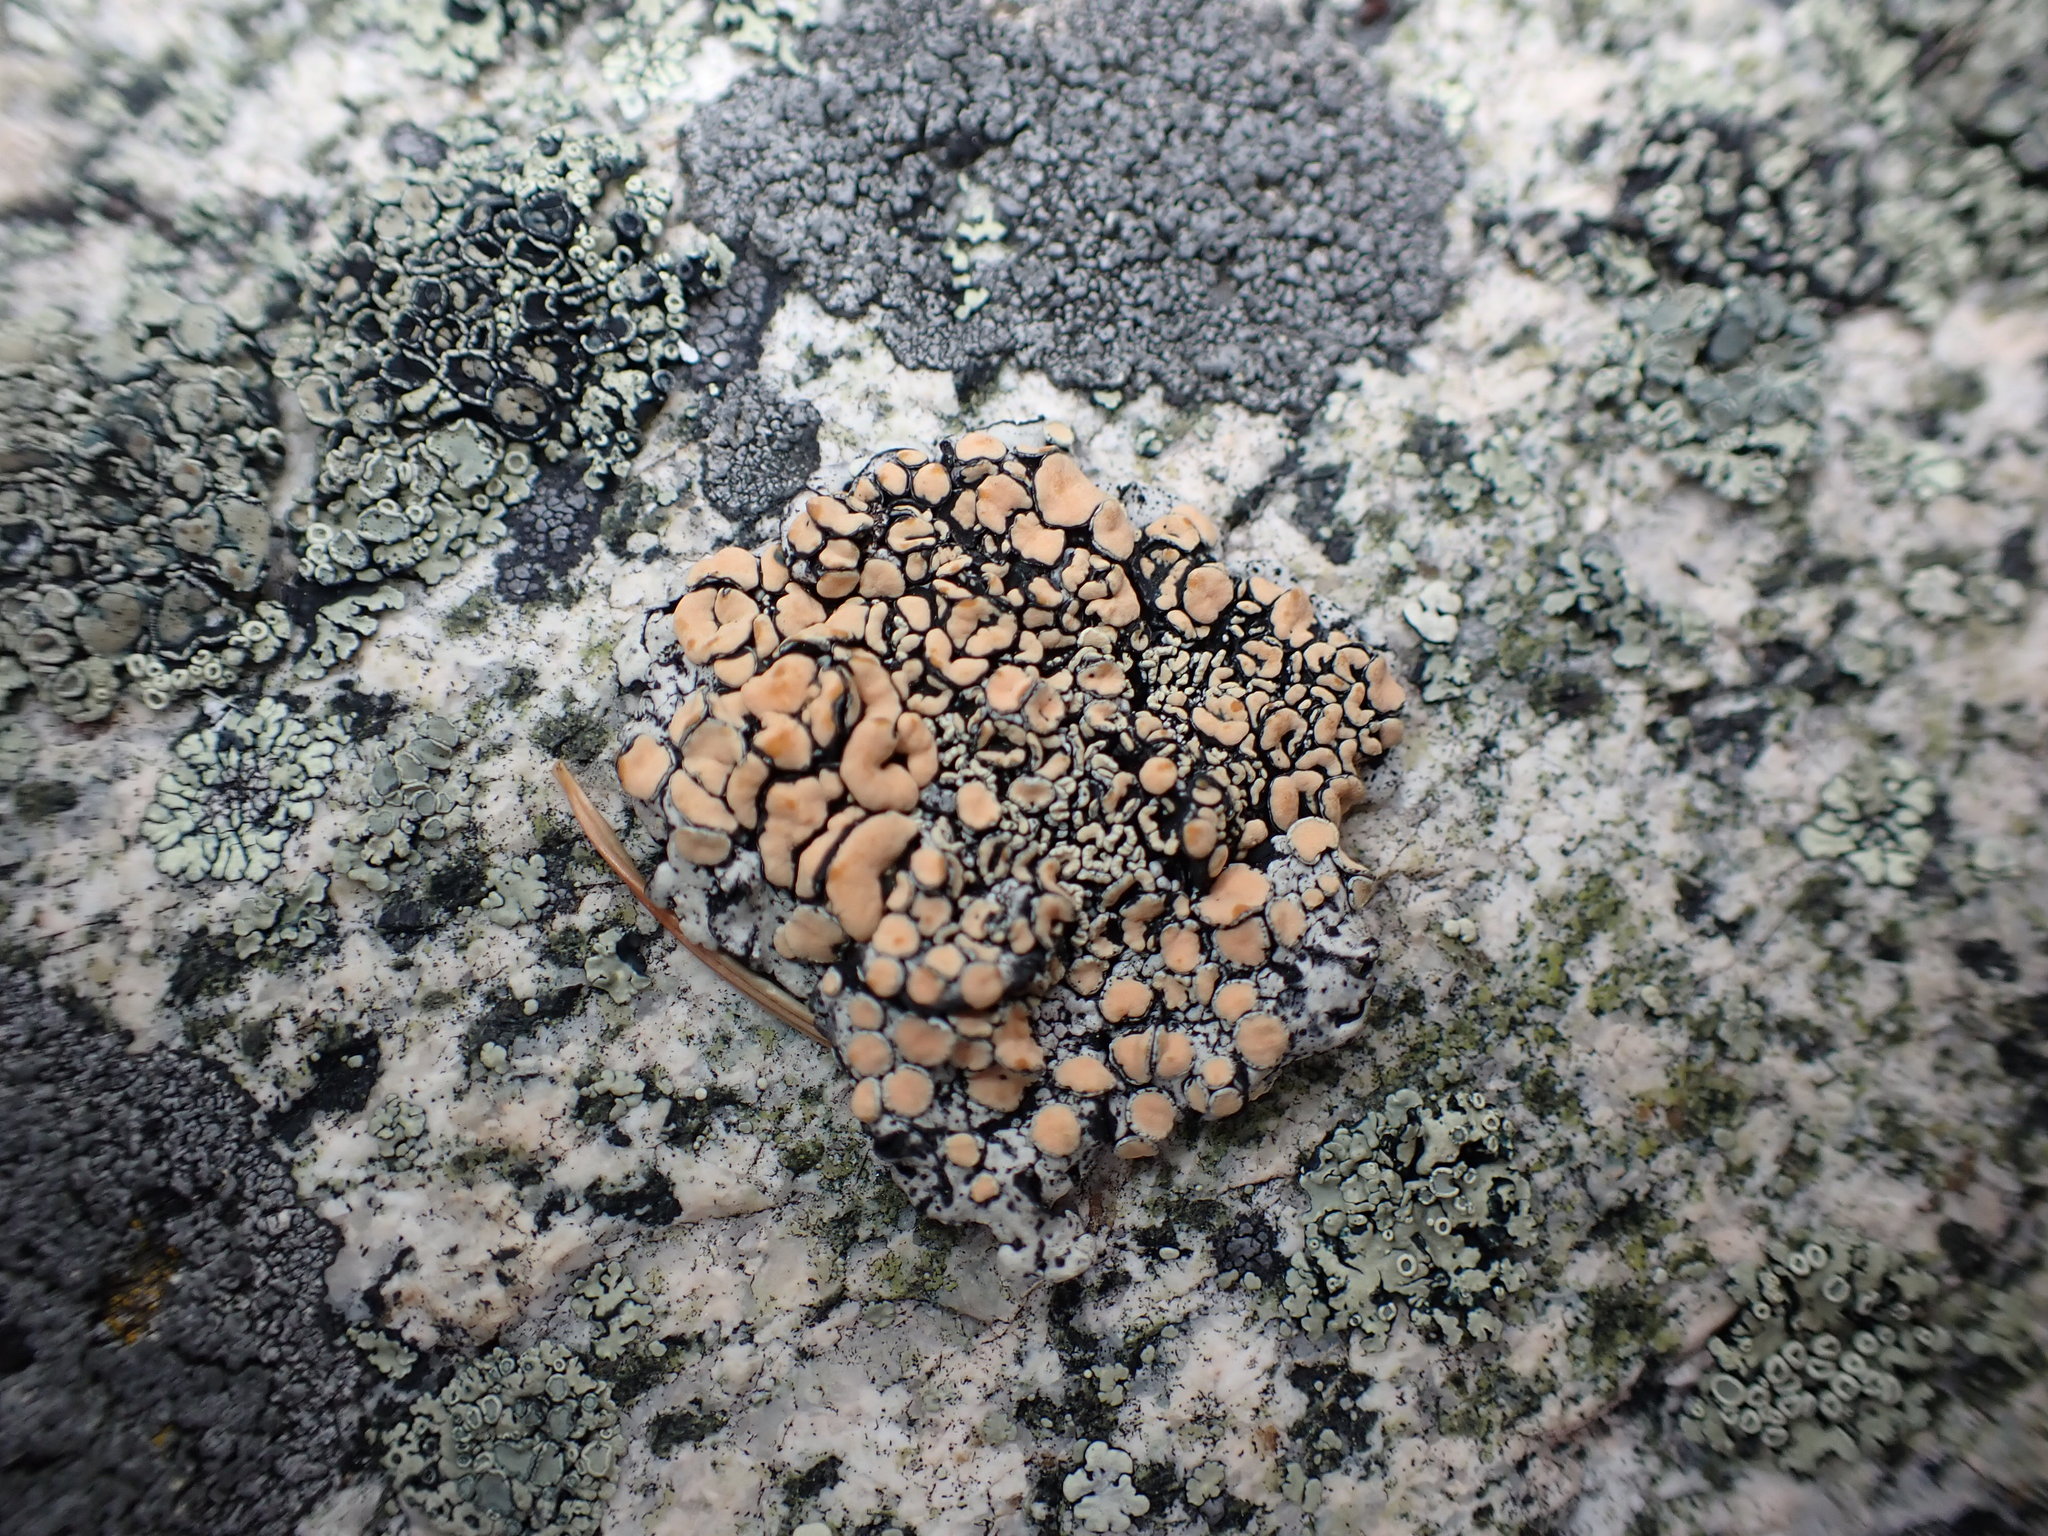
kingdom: Fungi
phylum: Ascomycota
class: Lecanoromycetes
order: Lecanorales
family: Lecanoraceae
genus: Omphalodina
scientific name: Omphalodina chrysoleuca
